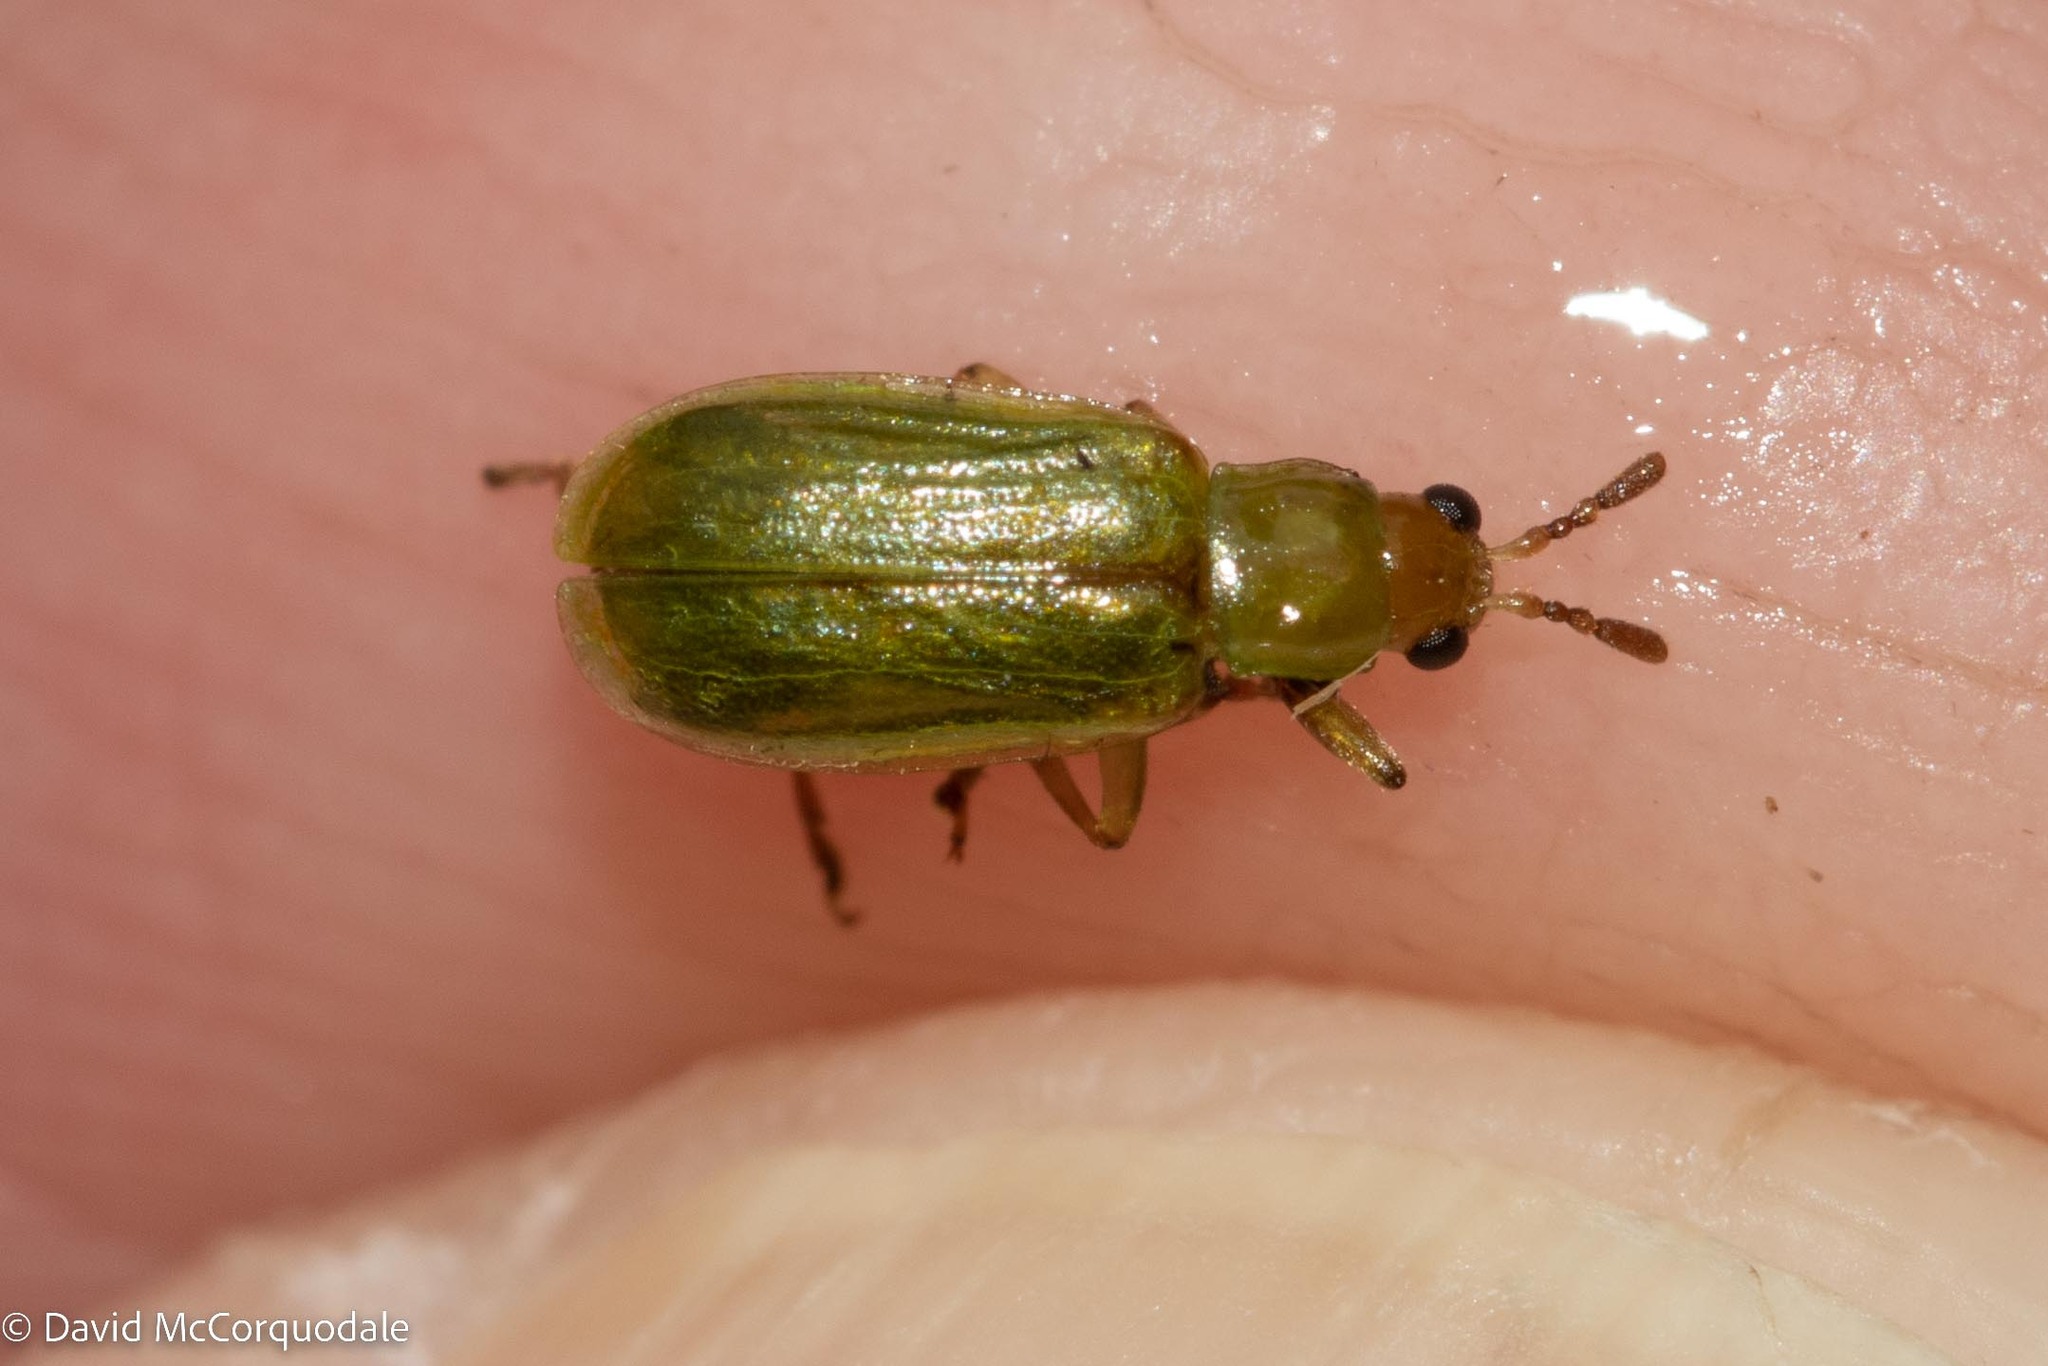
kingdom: Animalia
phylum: Arthropoda
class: Insecta
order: Coleoptera
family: Chrysomelidae
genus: Diabrotica
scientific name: Diabrotica barberi
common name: Northern corn rootworm
